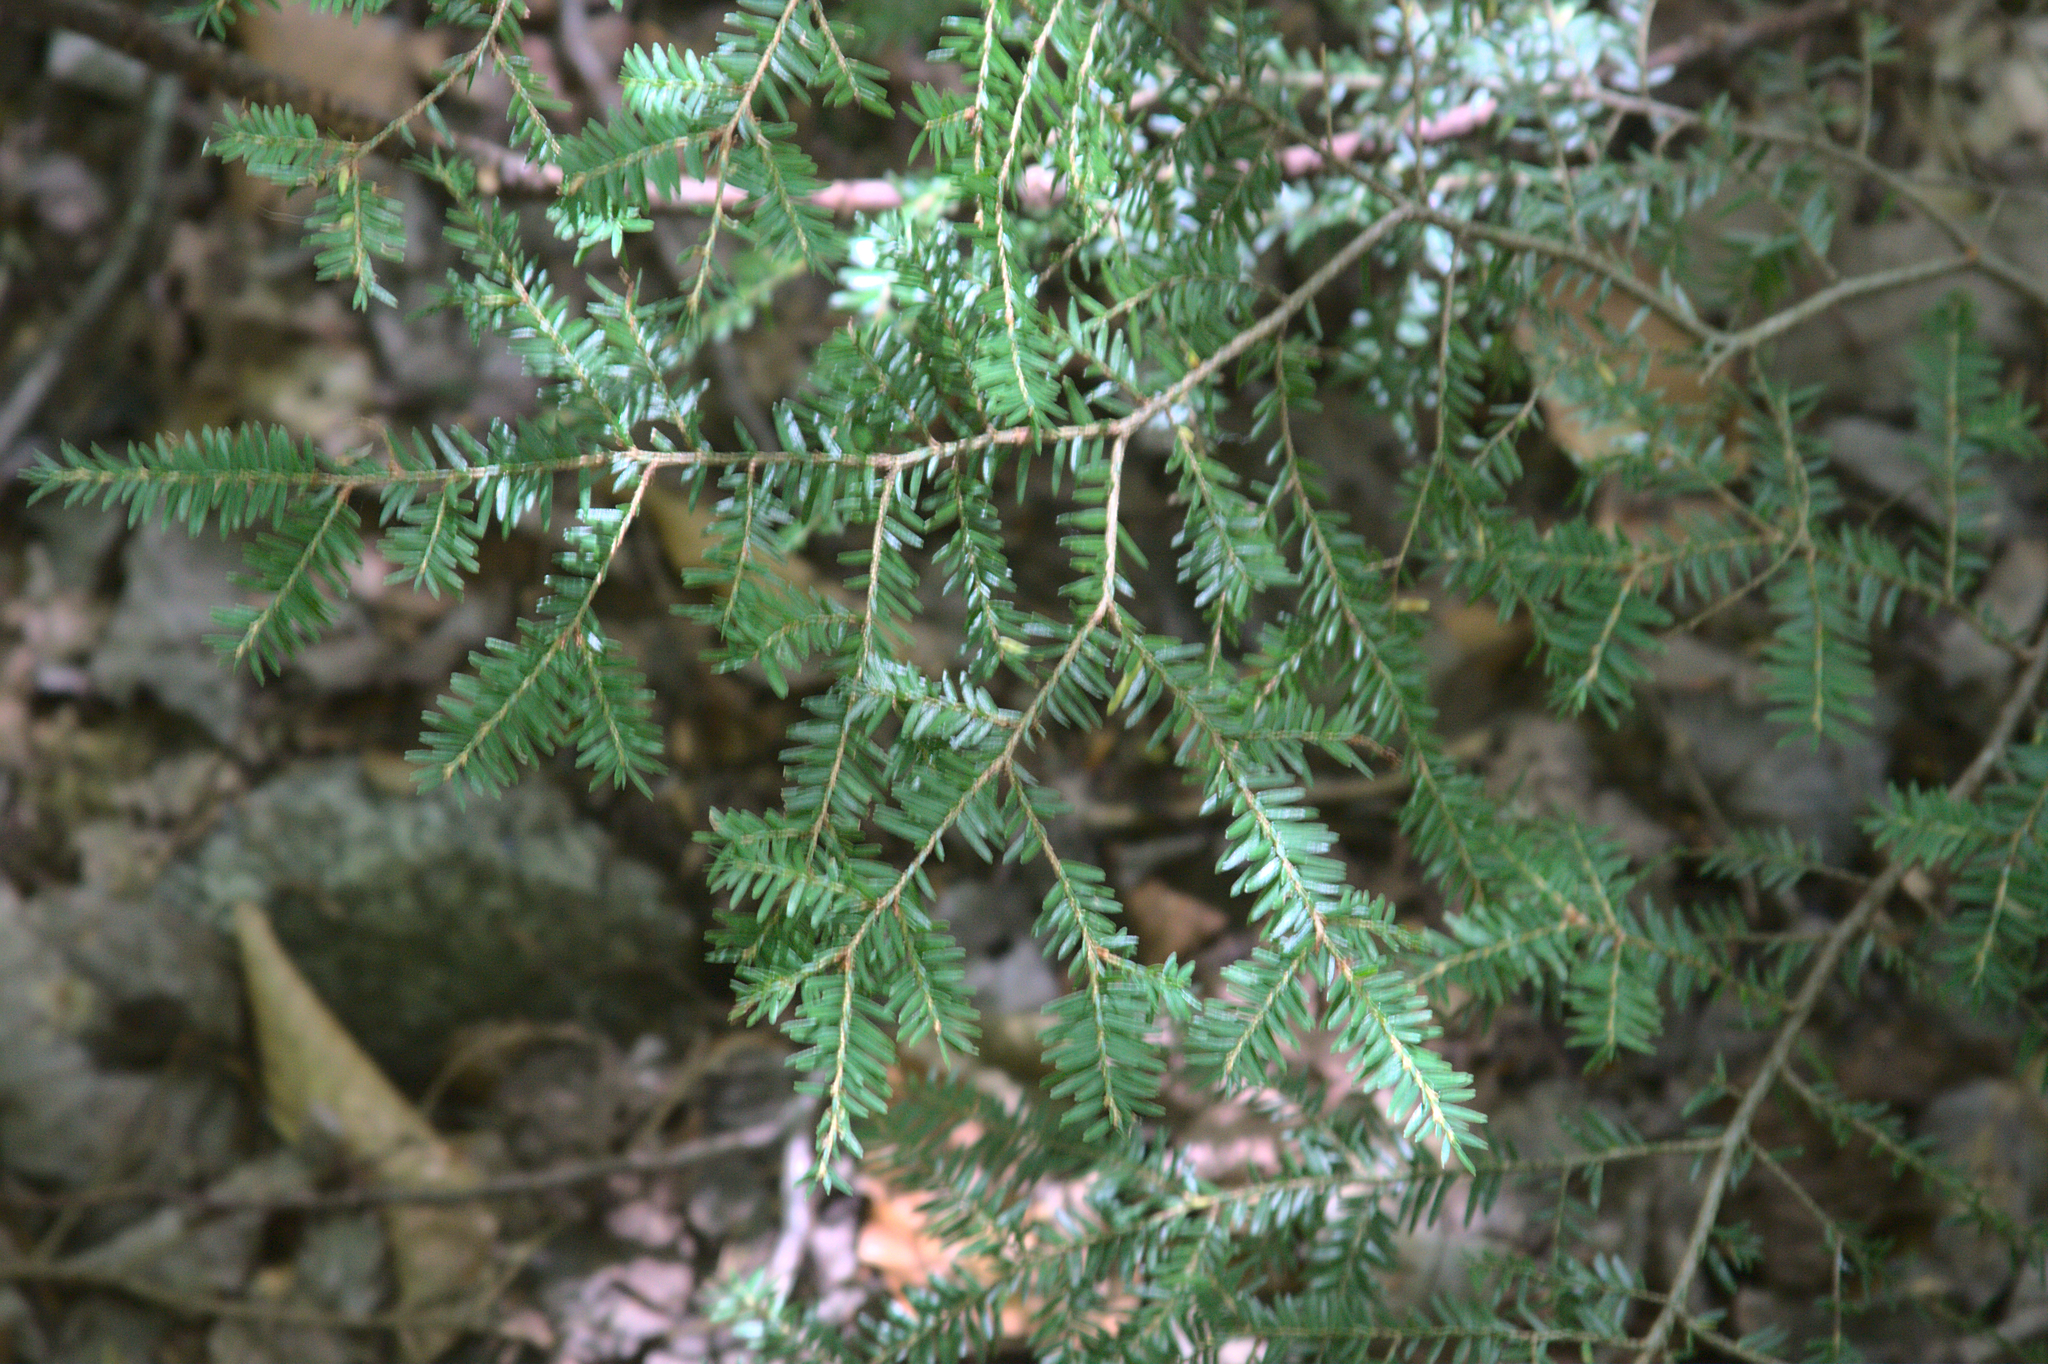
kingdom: Plantae
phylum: Tracheophyta
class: Pinopsida
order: Pinales
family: Pinaceae
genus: Tsuga
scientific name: Tsuga canadensis
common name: Eastern hemlock
